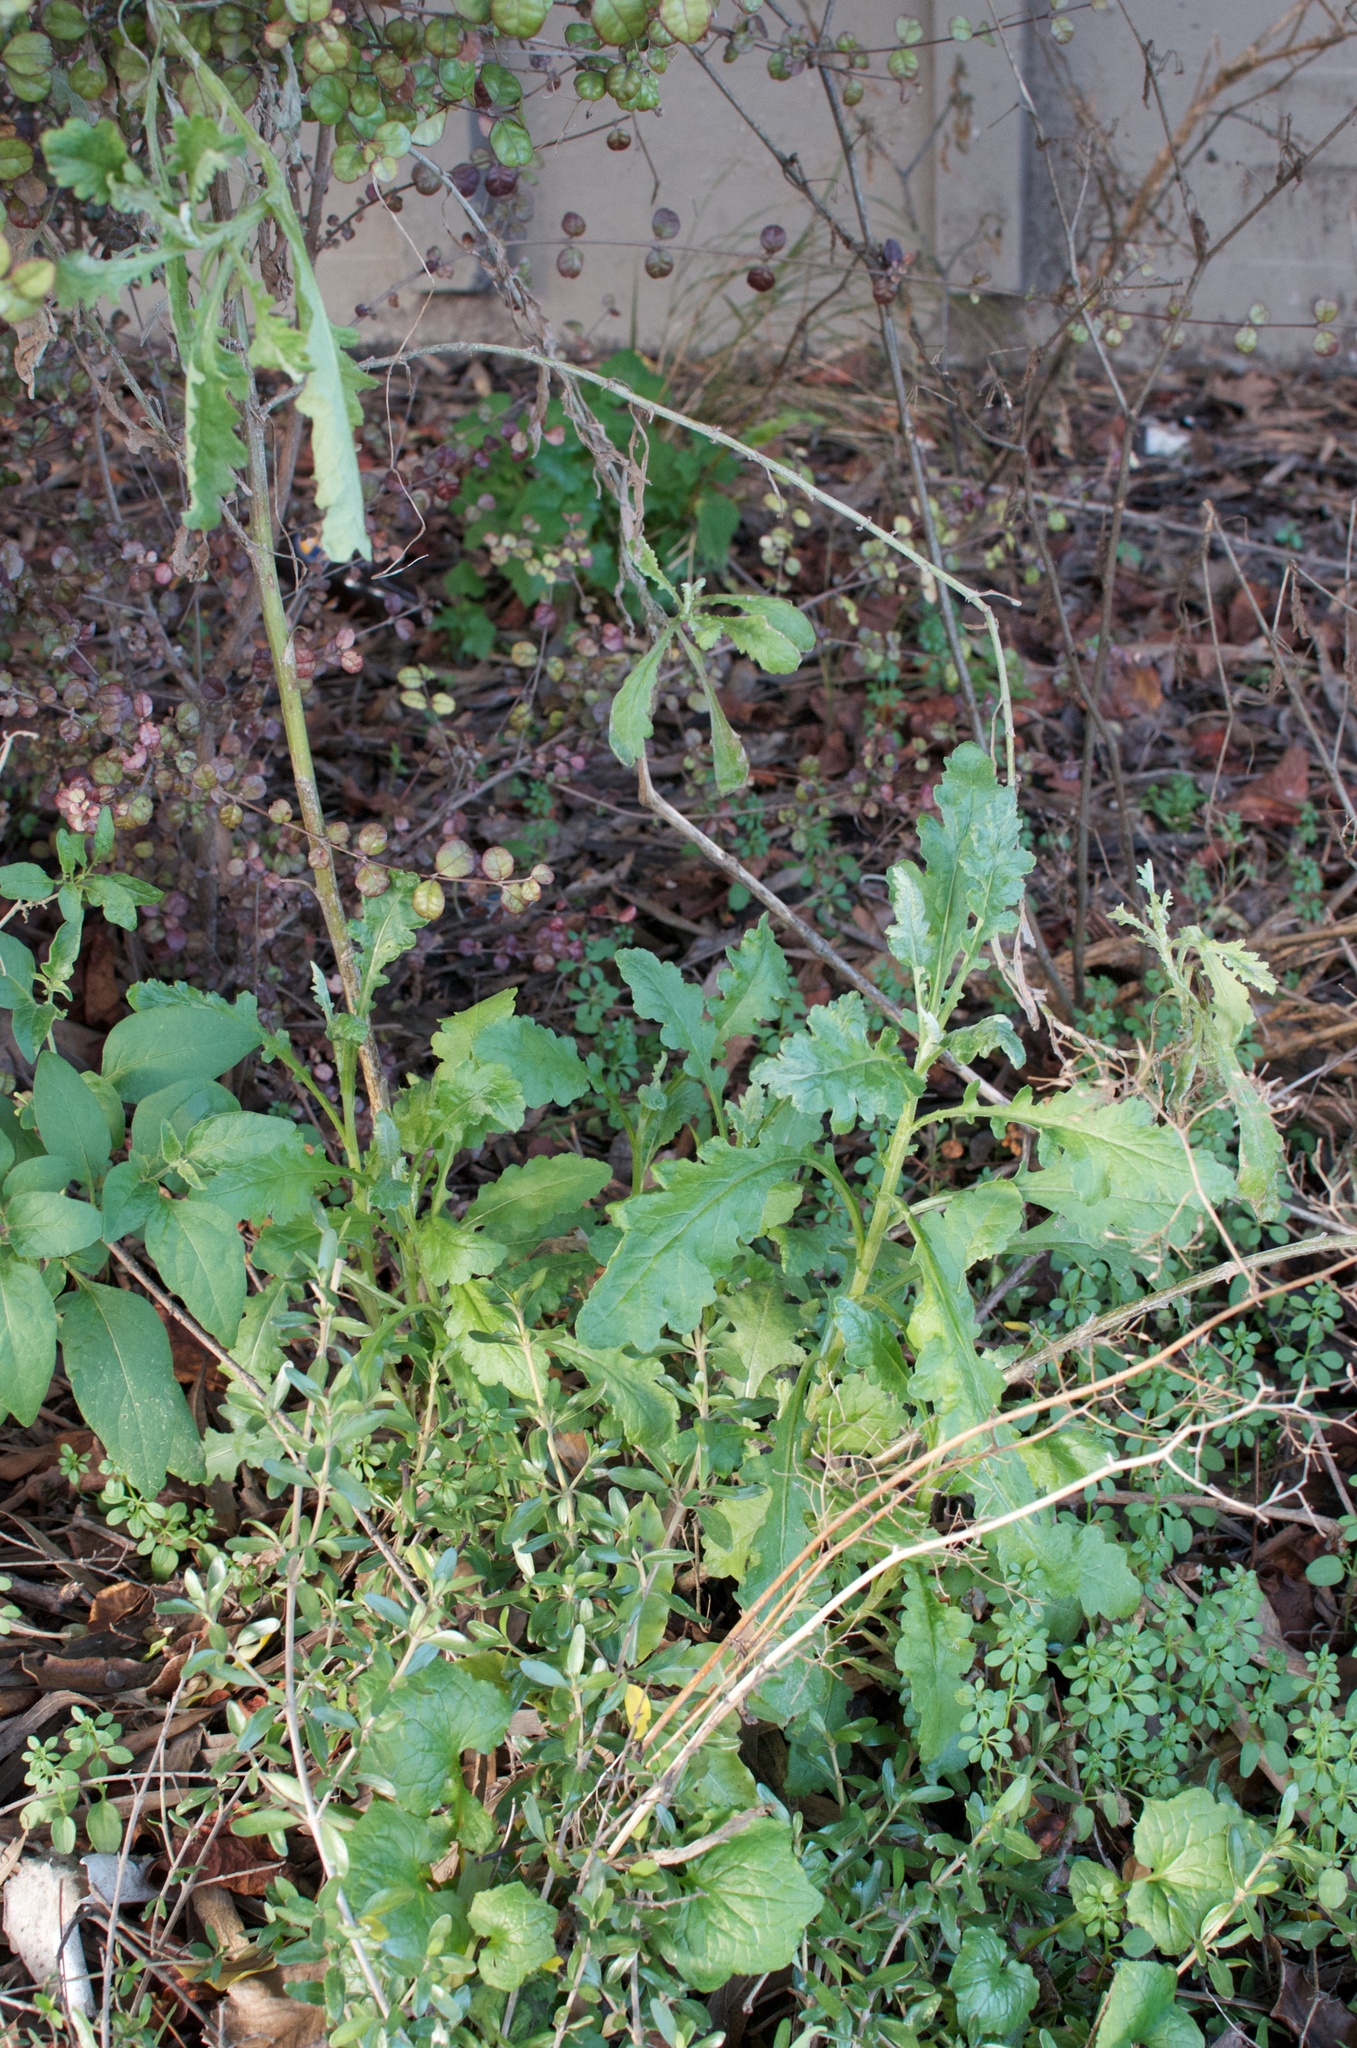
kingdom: Plantae
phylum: Tracheophyta
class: Magnoliopsida
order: Asterales
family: Asteraceae
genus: Senecio
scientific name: Senecio glomeratus
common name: Cutleaf burnweed
